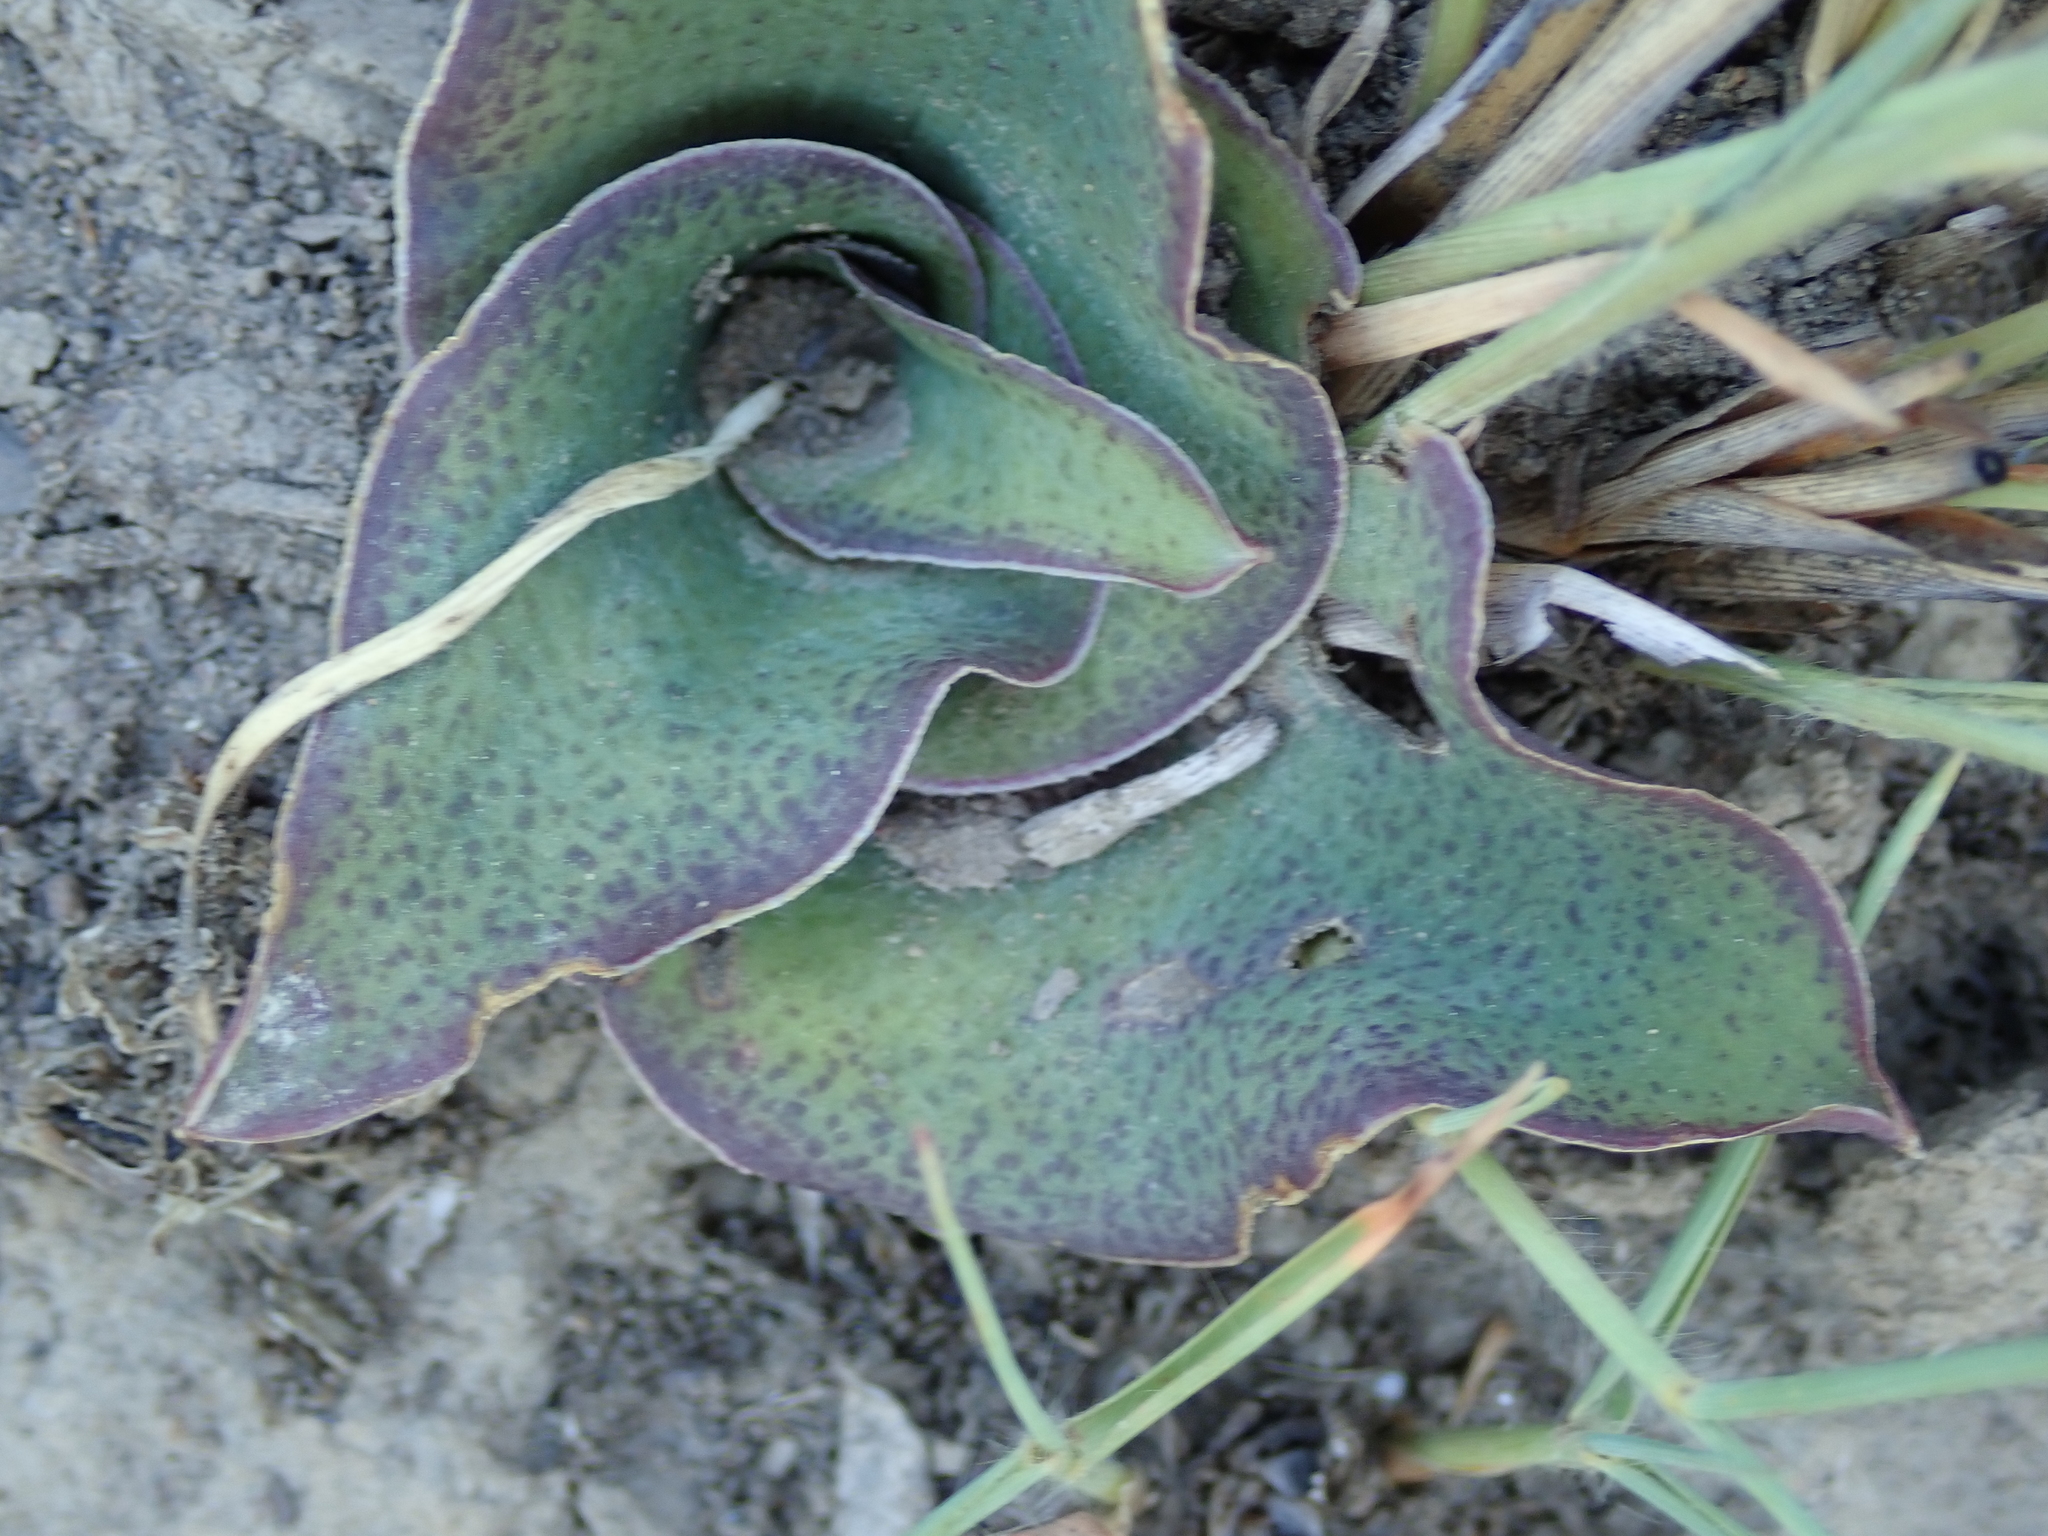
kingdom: Plantae
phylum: Tracheophyta
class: Liliopsida
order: Asparagales
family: Asparagaceae
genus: Ledebouria
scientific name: Ledebouria ovatifolia
